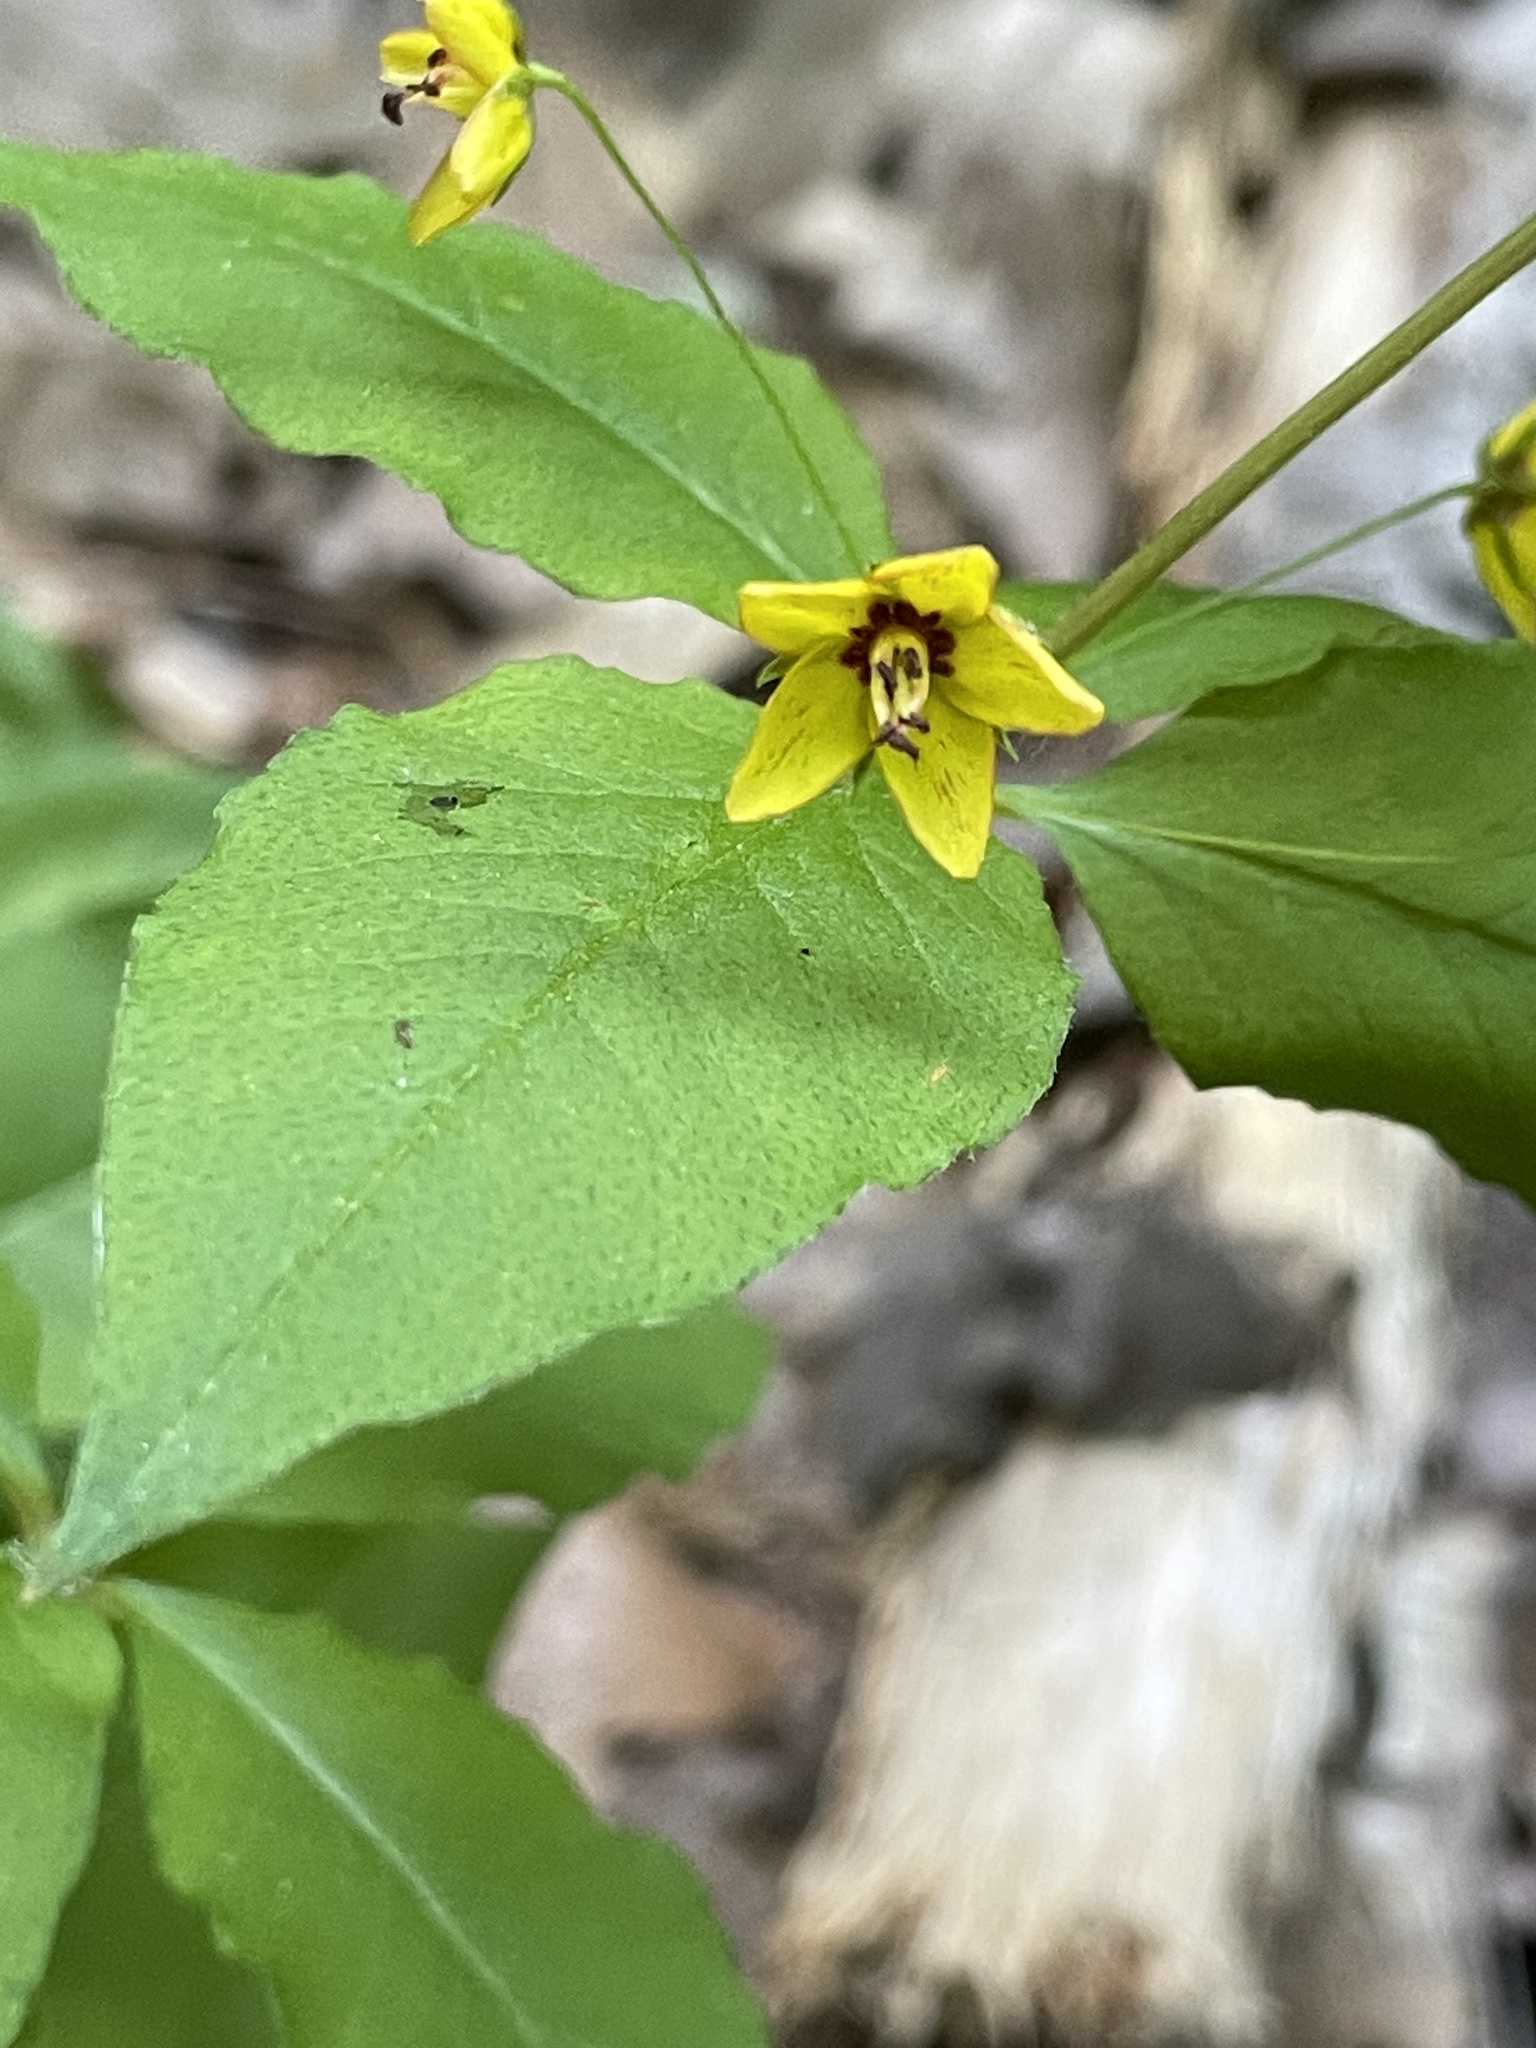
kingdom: Plantae
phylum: Tracheophyta
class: Magnoliopsida
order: Ericales
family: Primulaceae
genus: Lysimachia
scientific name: Lysimachia quadrifolia
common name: Whorled loosestrife
